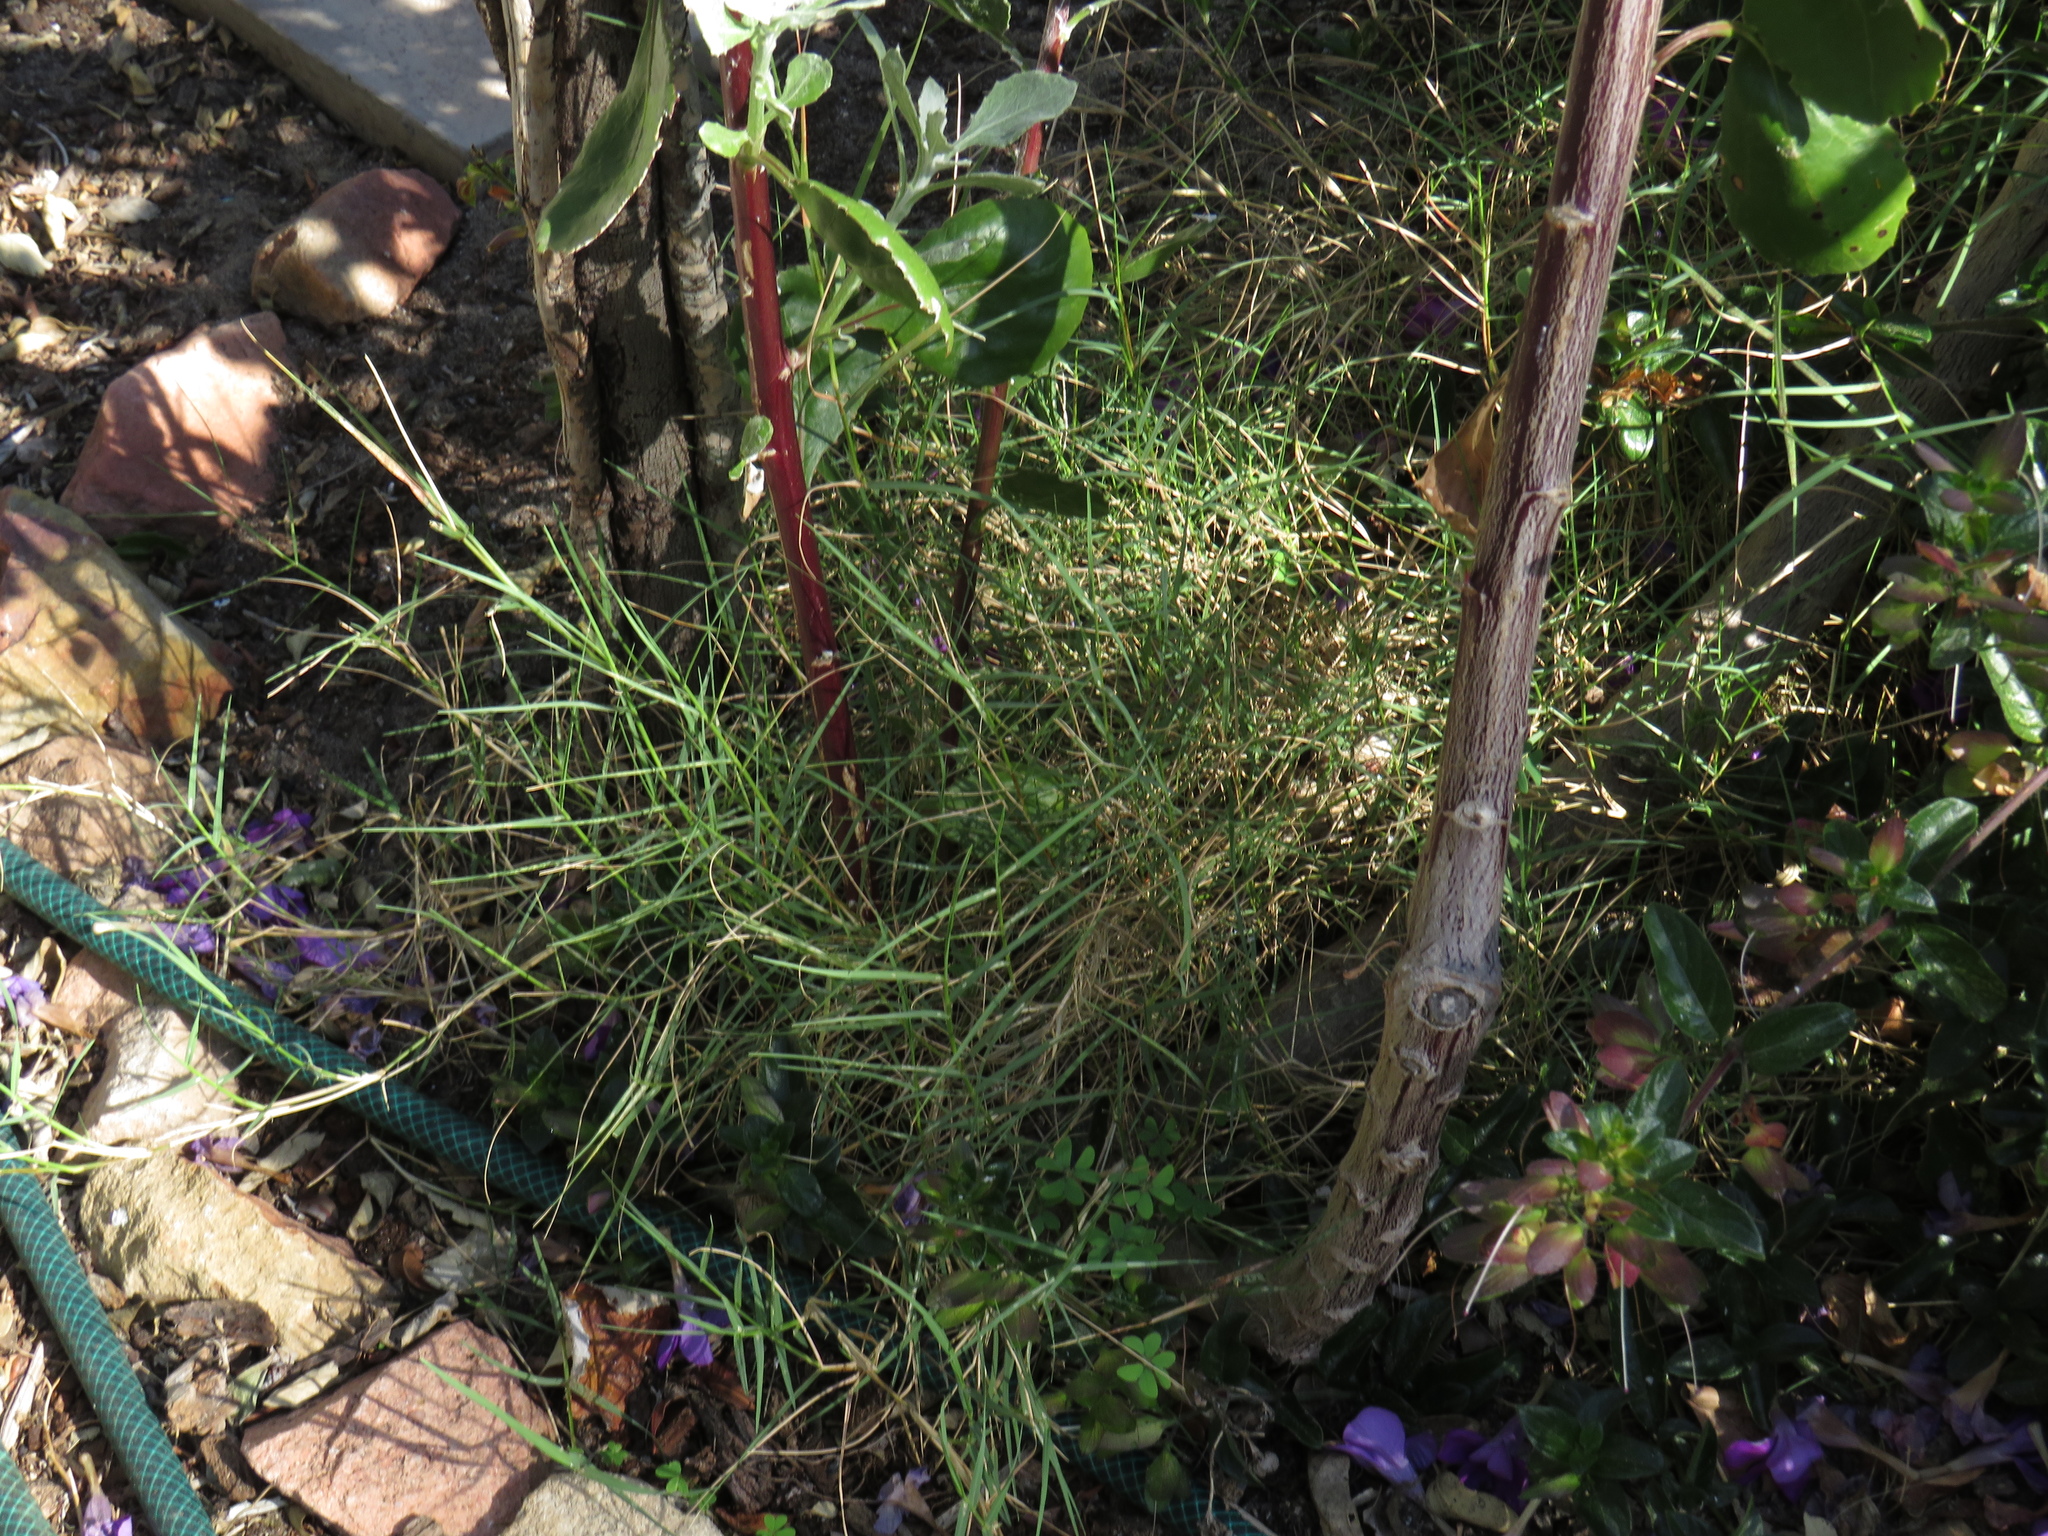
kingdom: Plantae
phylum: Tracheophyta
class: Liliopsida
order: Poales
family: Poaceae
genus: Cynodon
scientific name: Cynodon dactylon
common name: Bermuda grass
